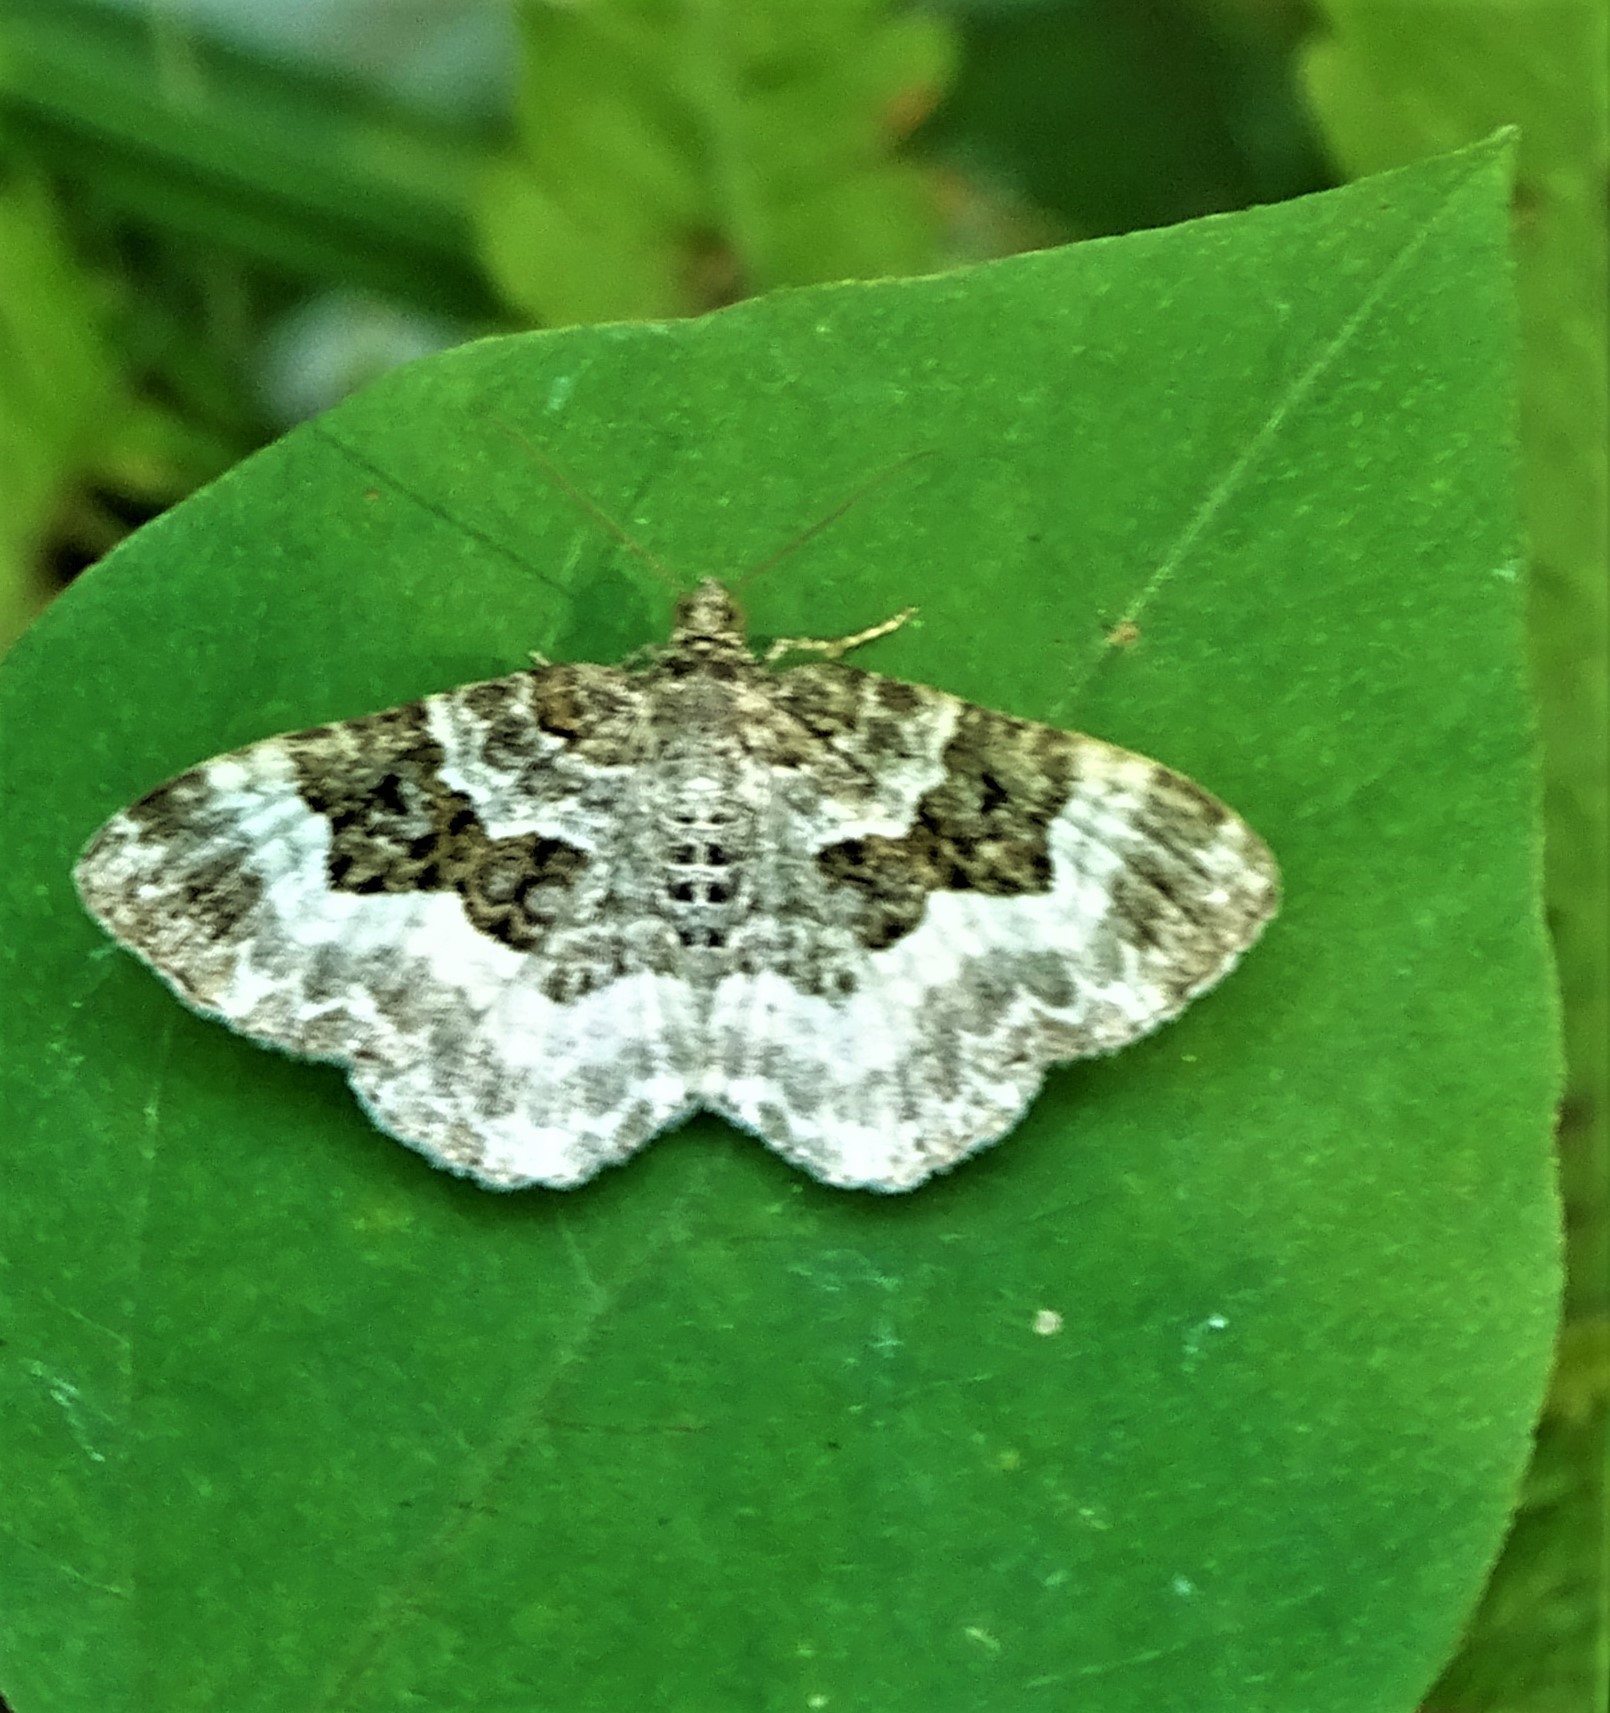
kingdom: Animalia
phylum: Arthropoda
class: Insecta
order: Lepidoptera
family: Geometridae
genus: Epirrhoe
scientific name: Epirrhoe alternata
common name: Common carpet
